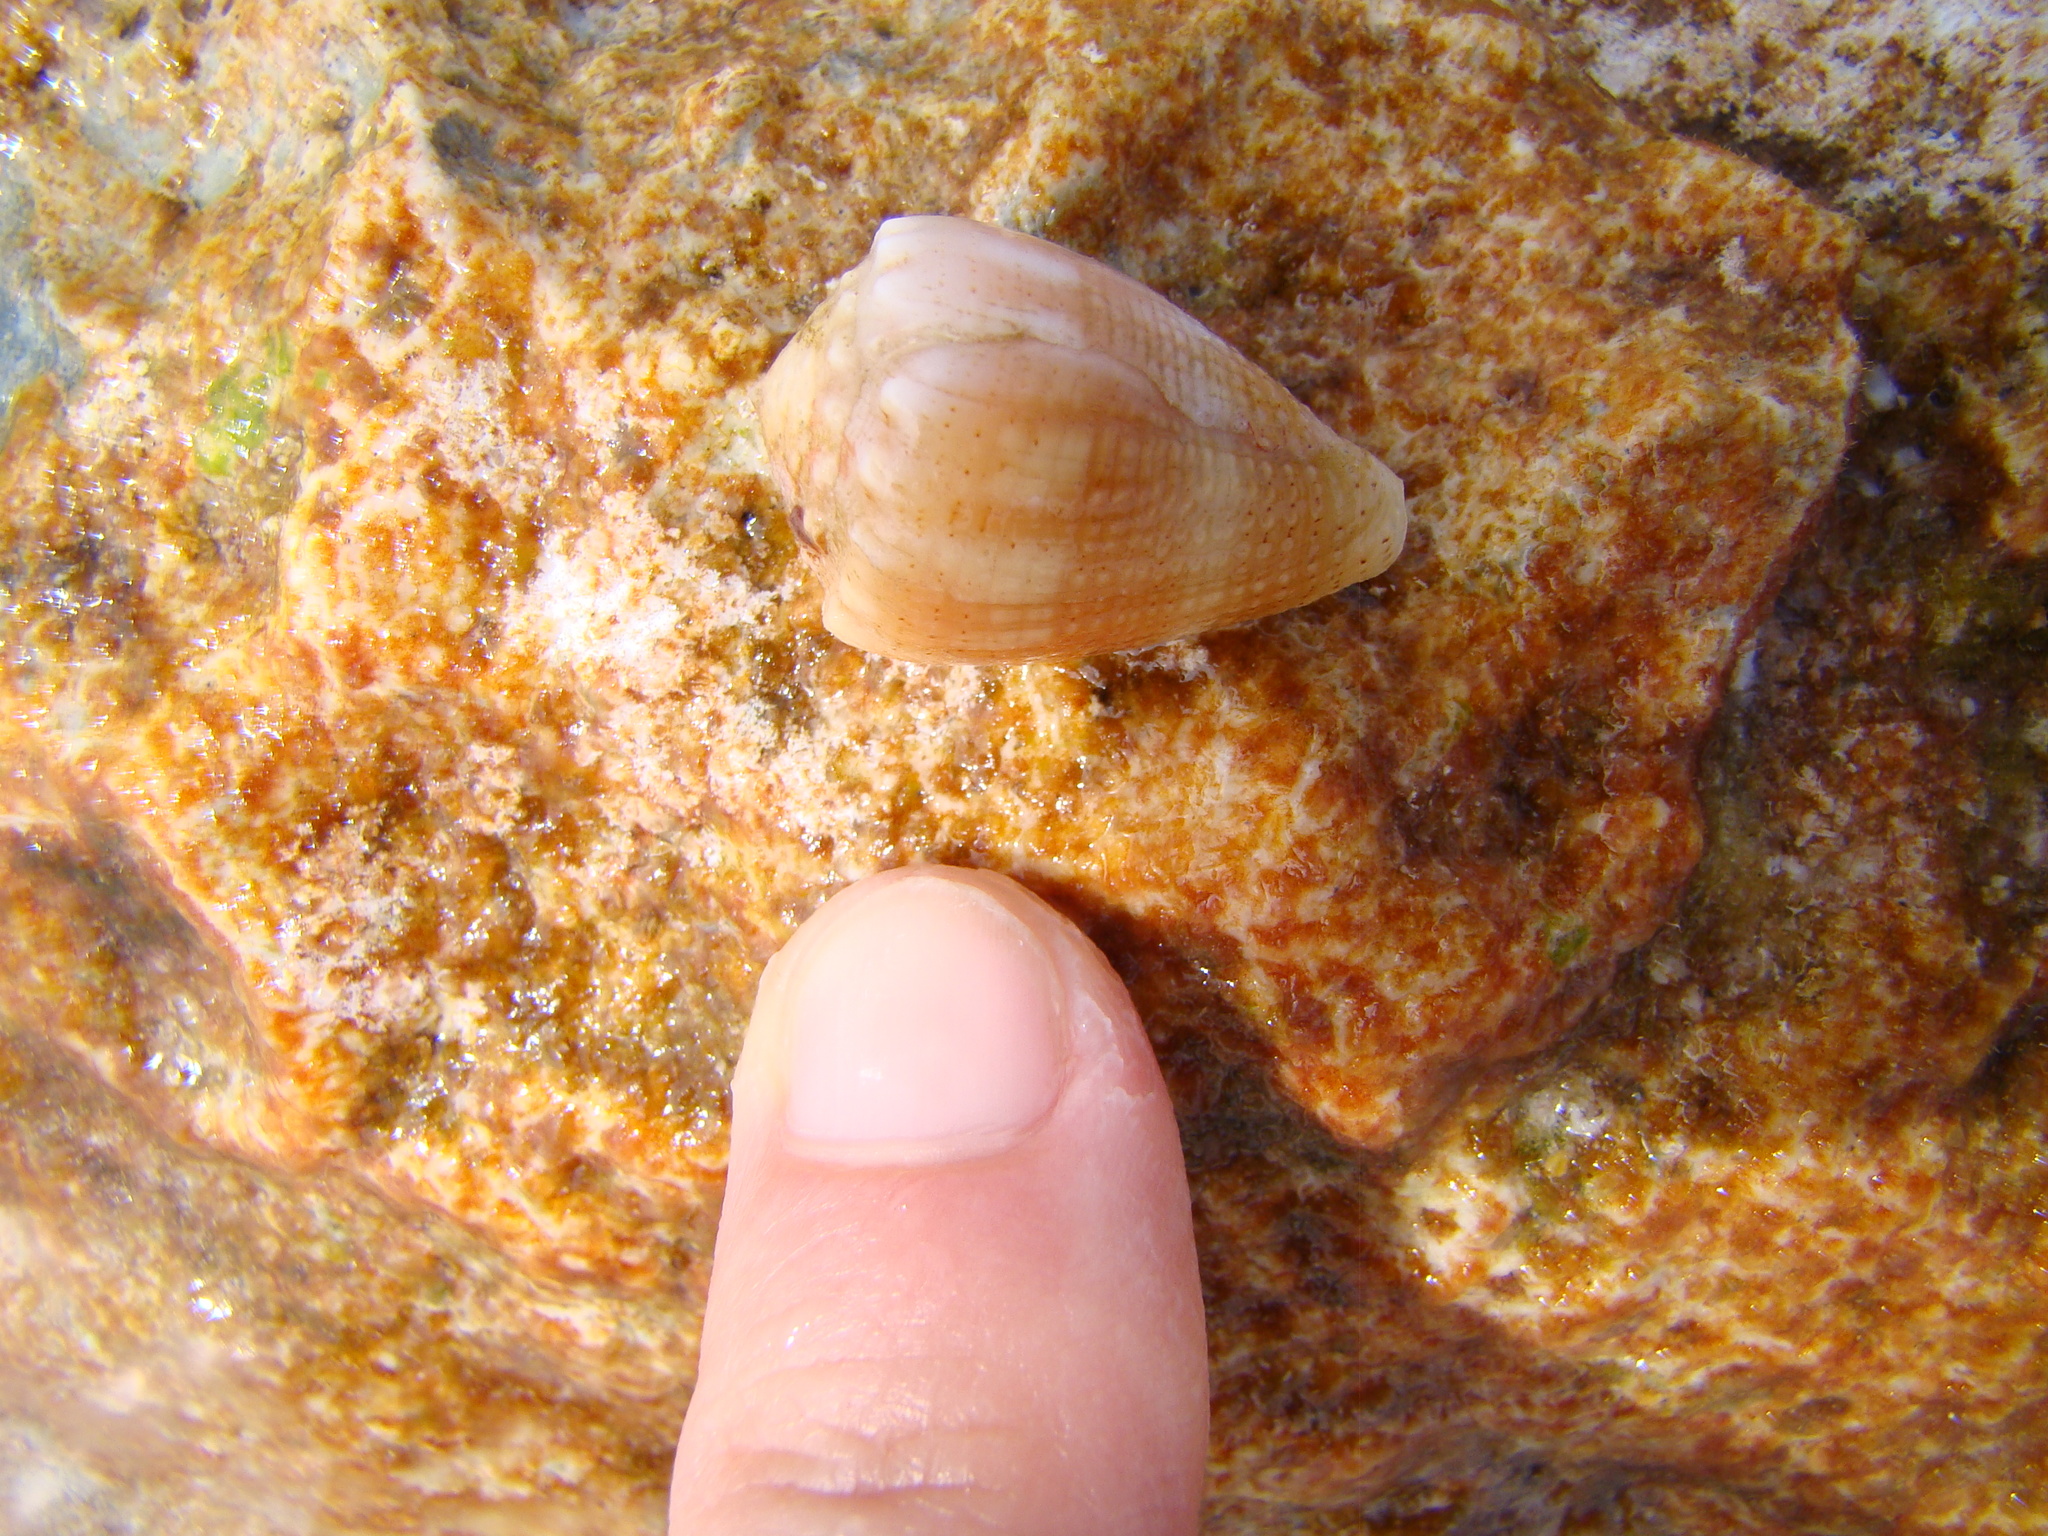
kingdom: Animalia
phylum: Mollusca
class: Gastropoda
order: Neogastropoda
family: Conidae
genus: Conus
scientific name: Conus miliaris
